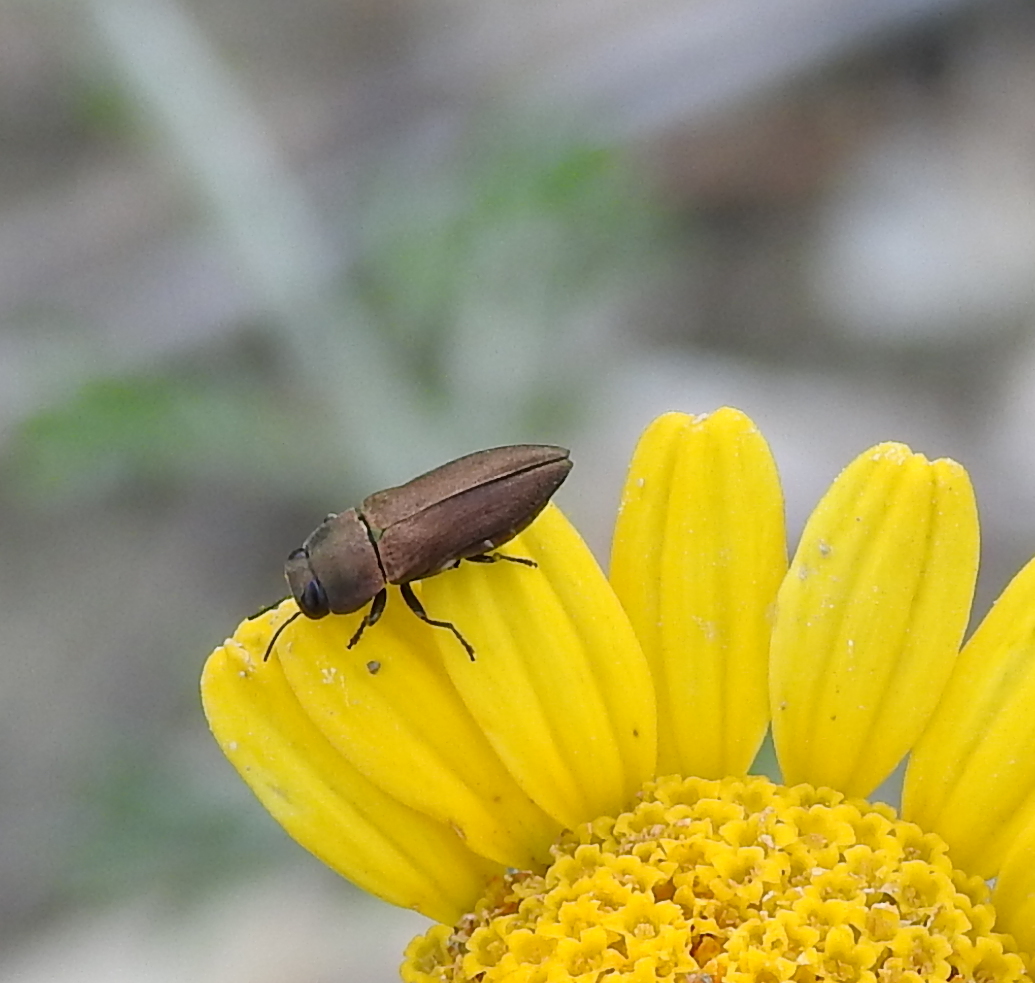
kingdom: Animalia
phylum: Arthropoda
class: Insecta
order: Coleoptera
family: Buprestidae
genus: Anthaxia
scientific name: Anthaxia millefolii
